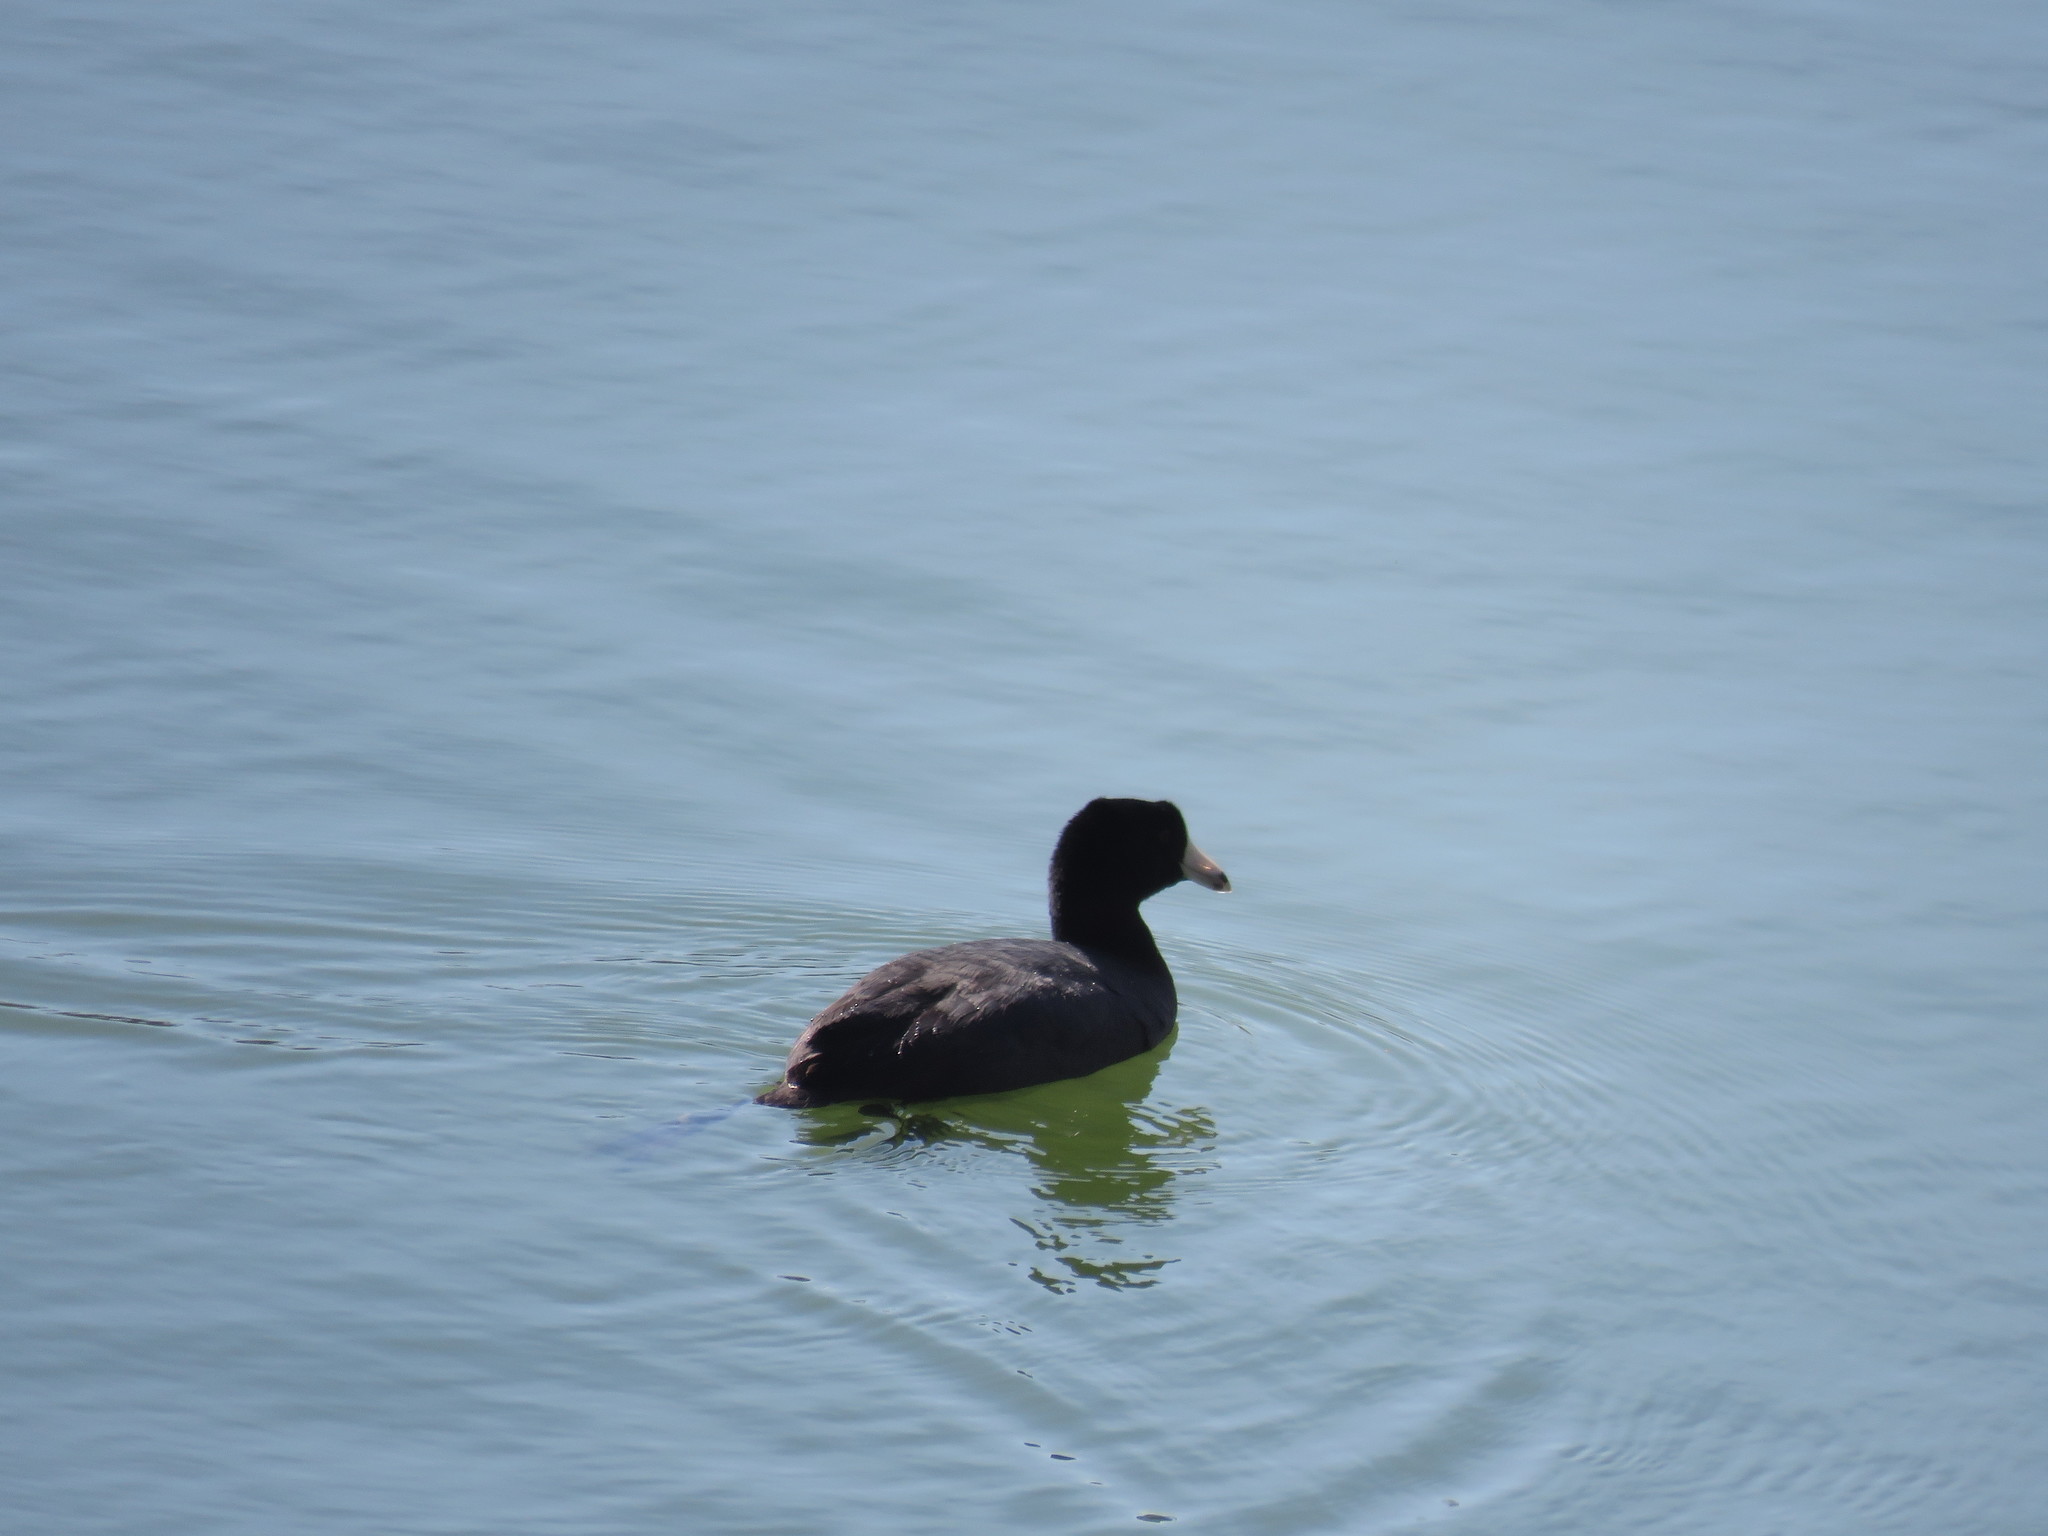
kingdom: Animalia
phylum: Chordata
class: Aves
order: Gruiformes
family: Rallidae
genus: Fulica
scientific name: Fulica americana
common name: American coot
